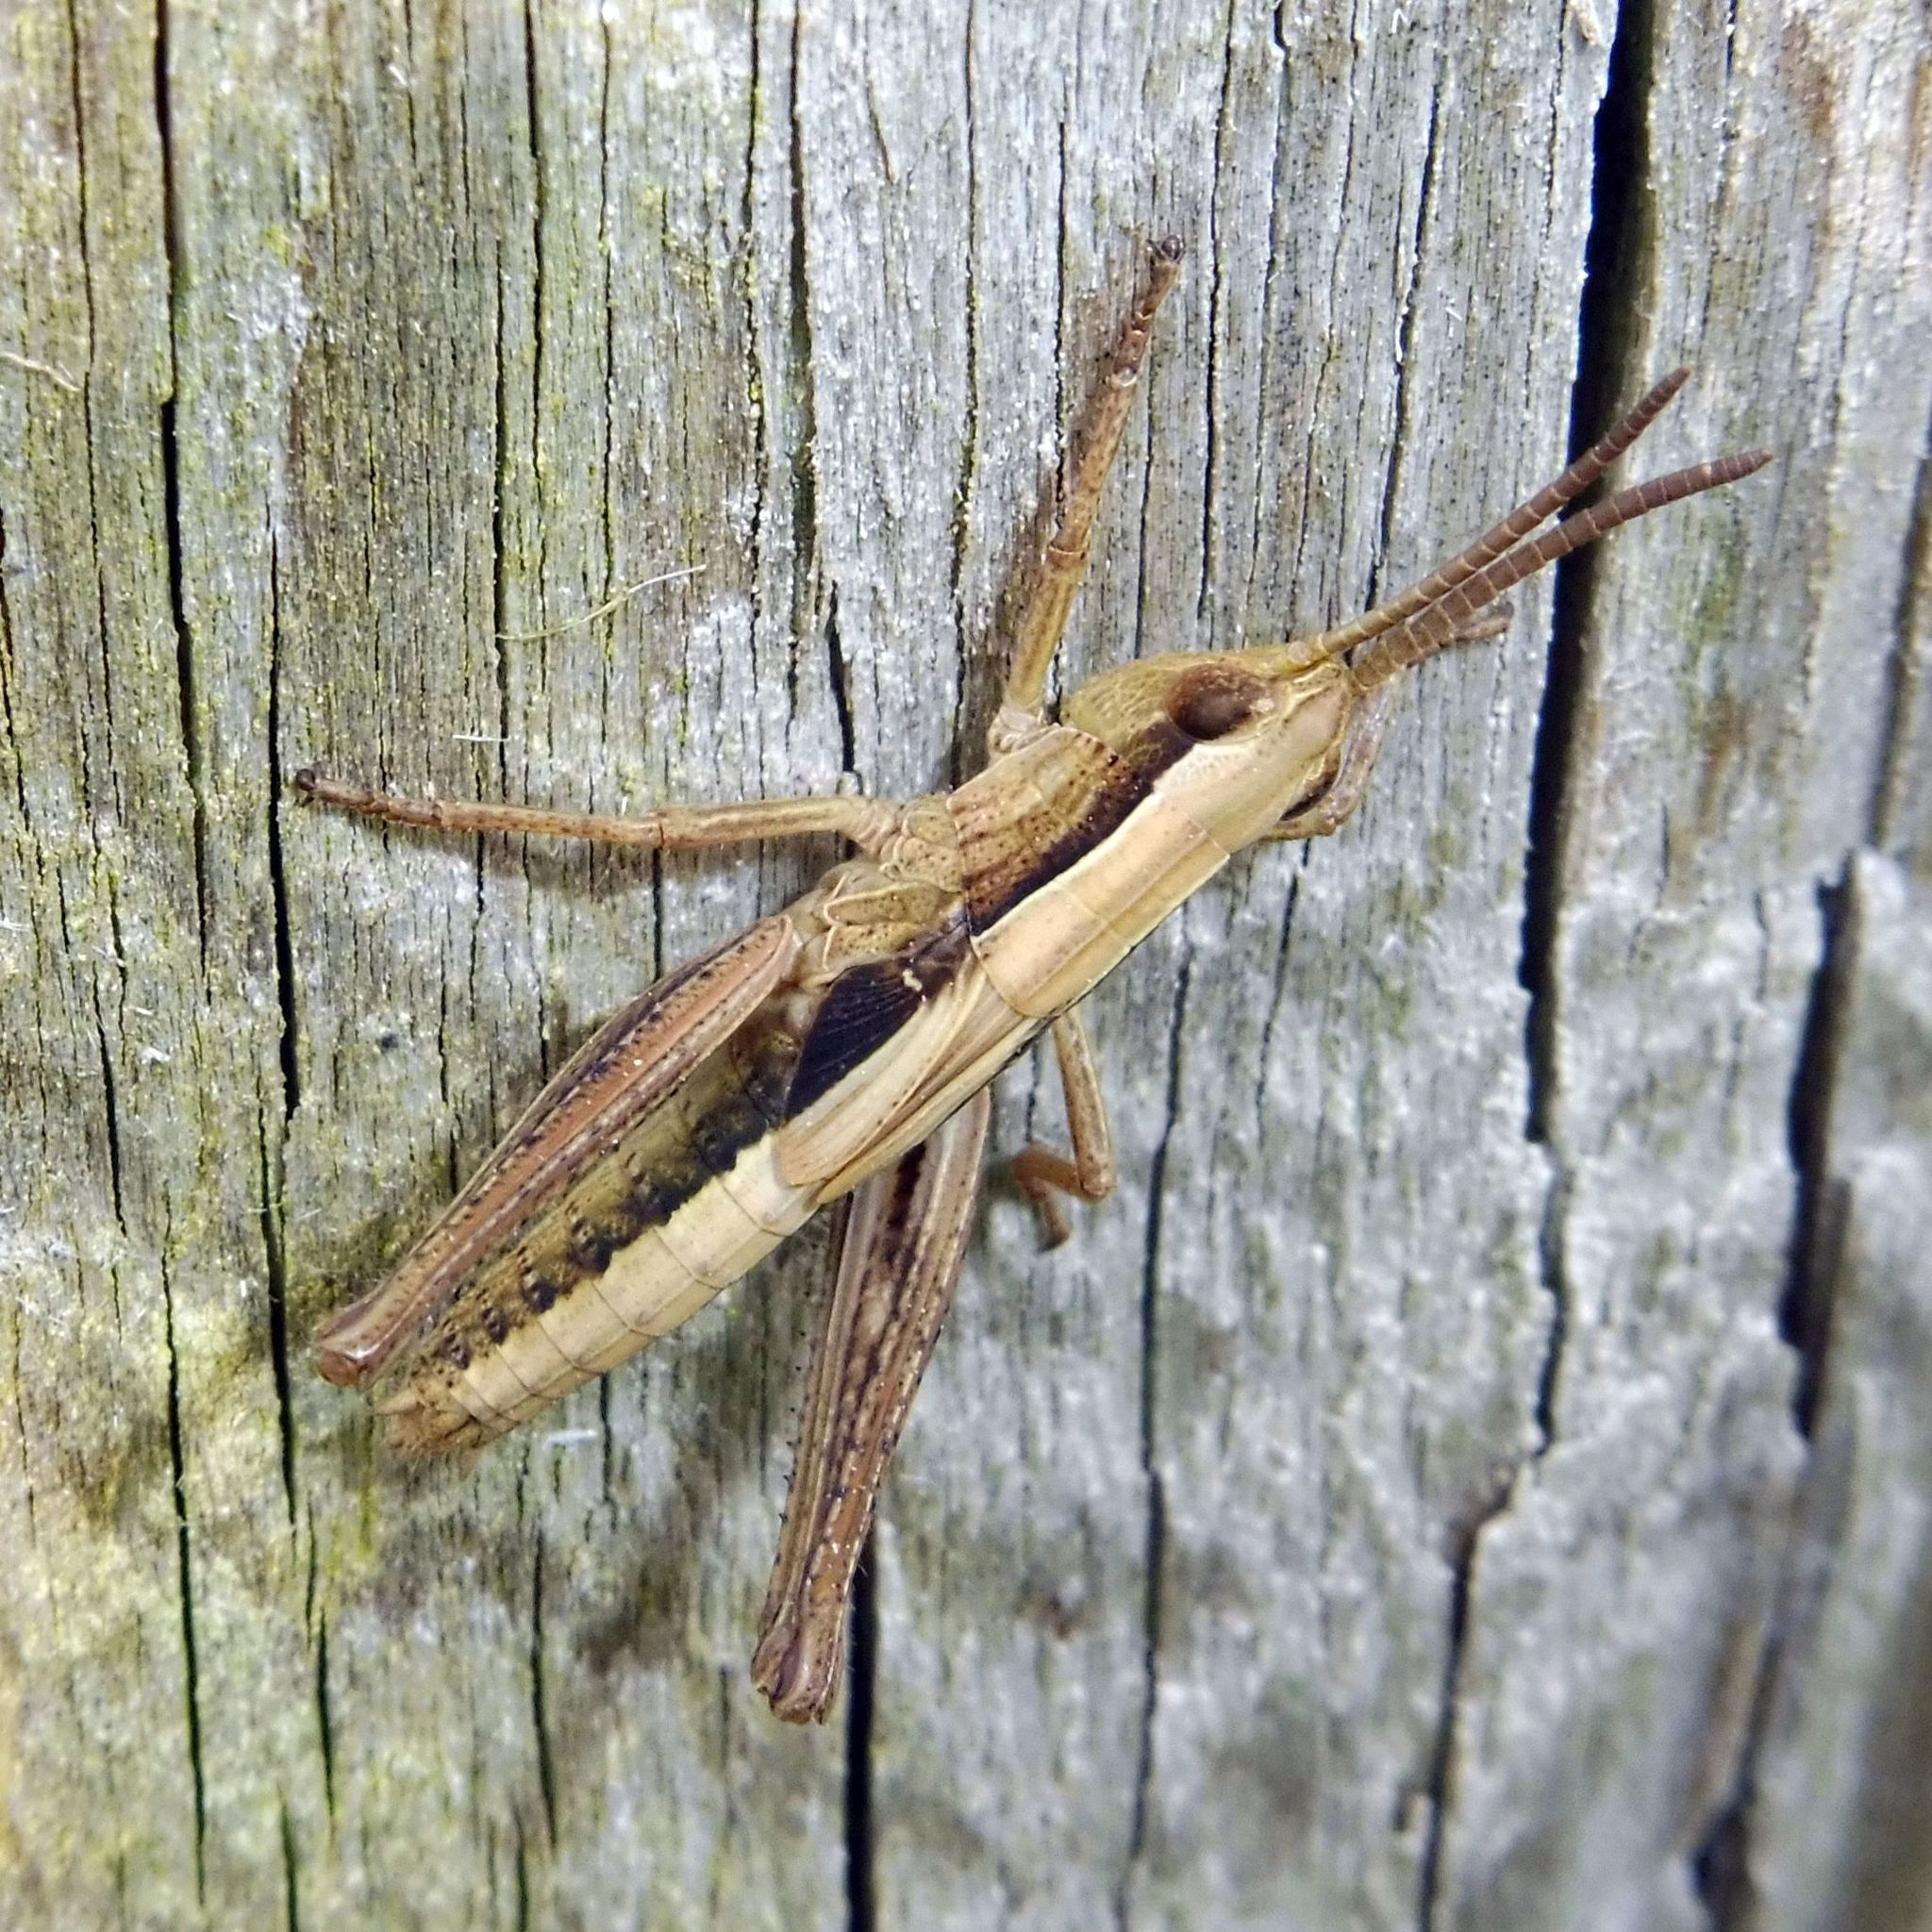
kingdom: Animalia
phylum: Arthropoda
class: Insecta
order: Orthoptera
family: Acrididae
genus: Chorthippus
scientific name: Chorthippus albomarginatus
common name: Lesser marsh grasshopper
